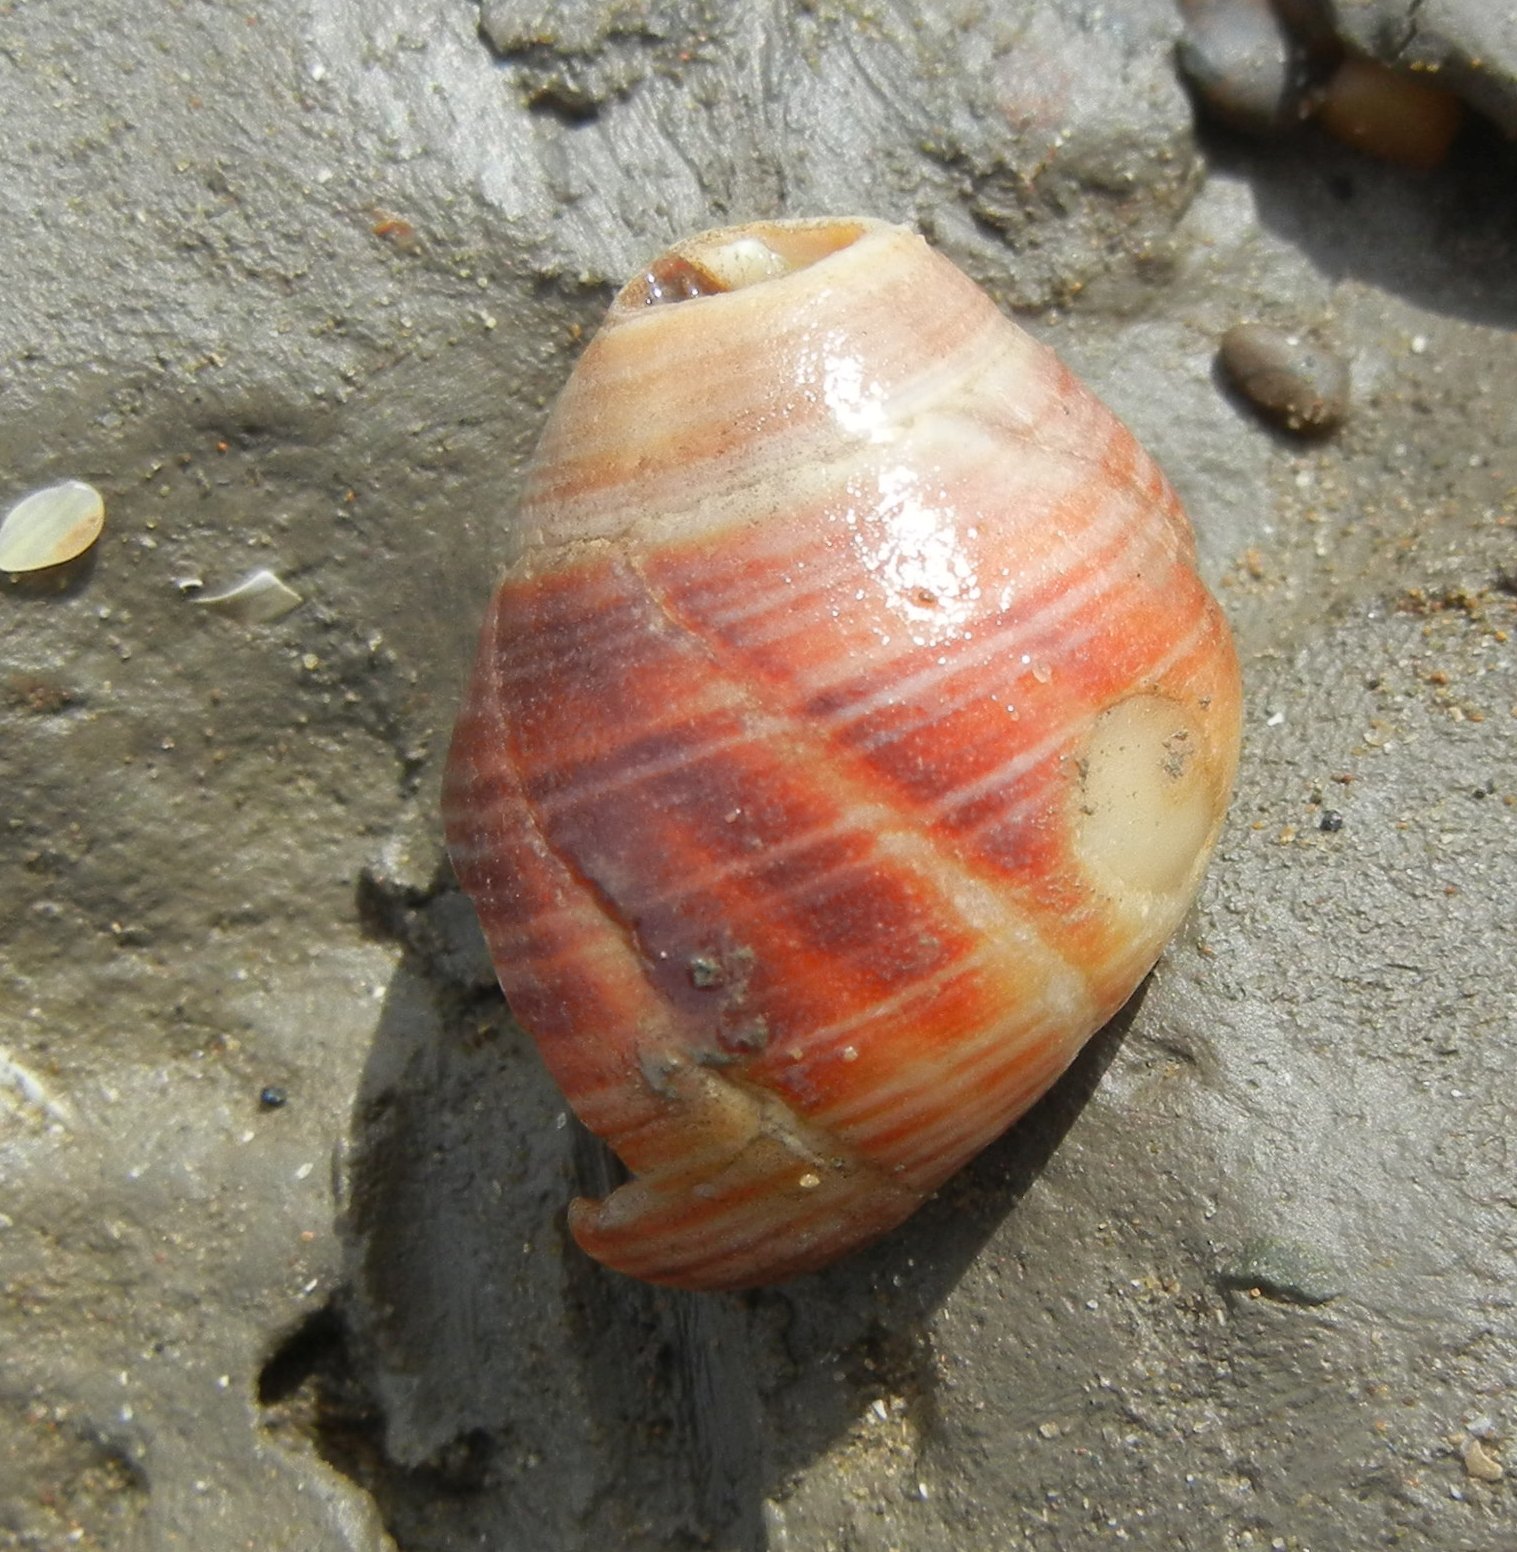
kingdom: Animalia
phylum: Mollusca
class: Gastropoda
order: Littorinimorpha
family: Littorinidae
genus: Littorina
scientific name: Littorina littorea
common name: Common periwinkle
